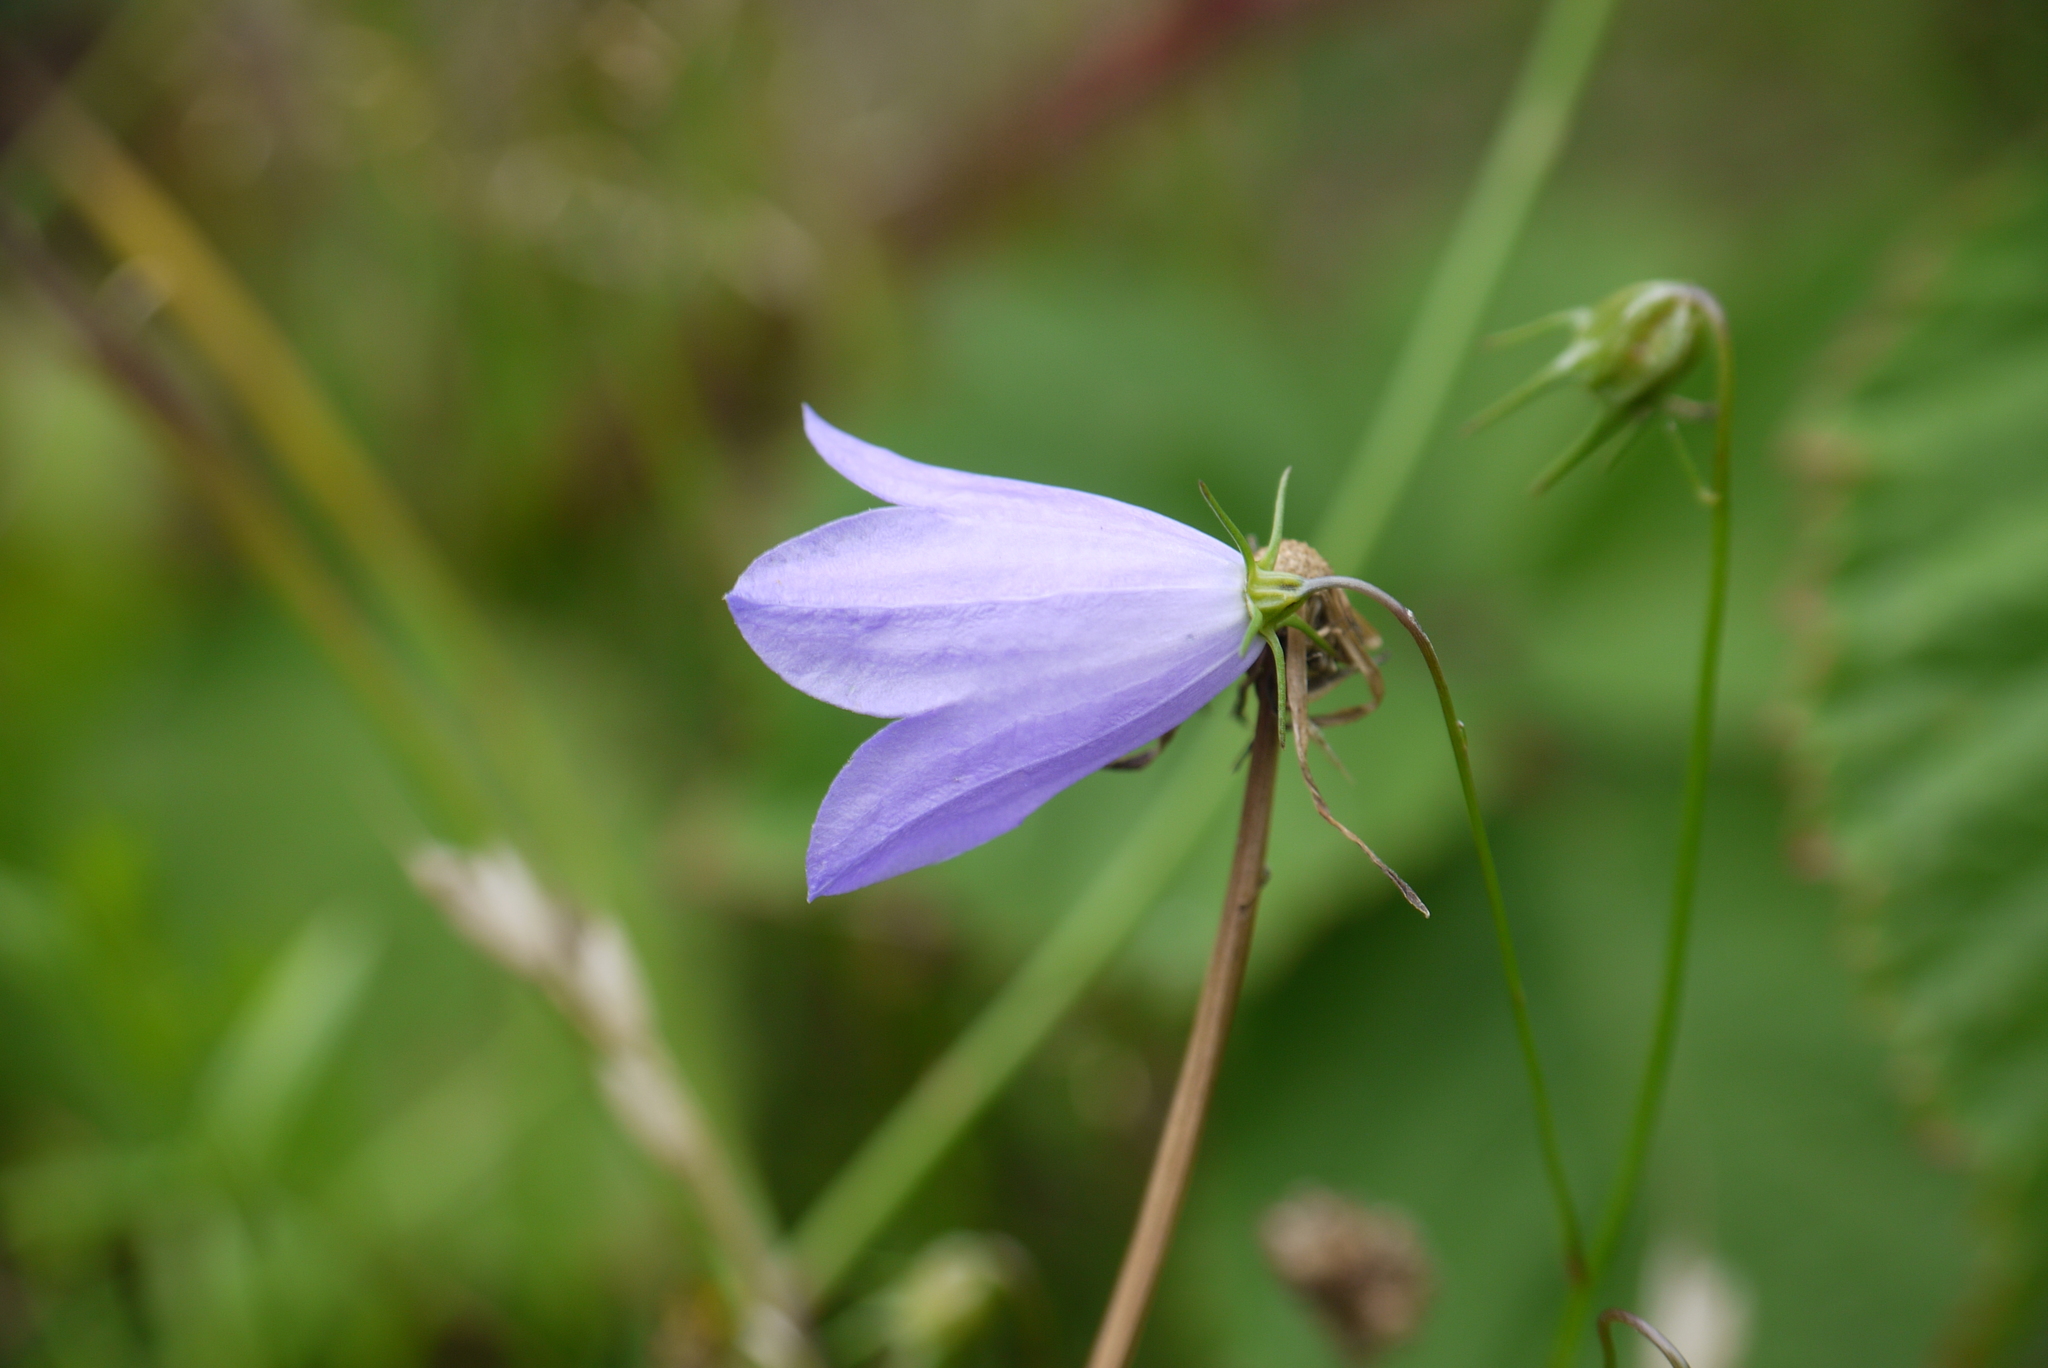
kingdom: Plantae
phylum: Tracheophyta
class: Magnoliopsida
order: Asterales
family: Campanulaceae
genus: Campanula
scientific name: Campanula rotundifolia
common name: Harebell
